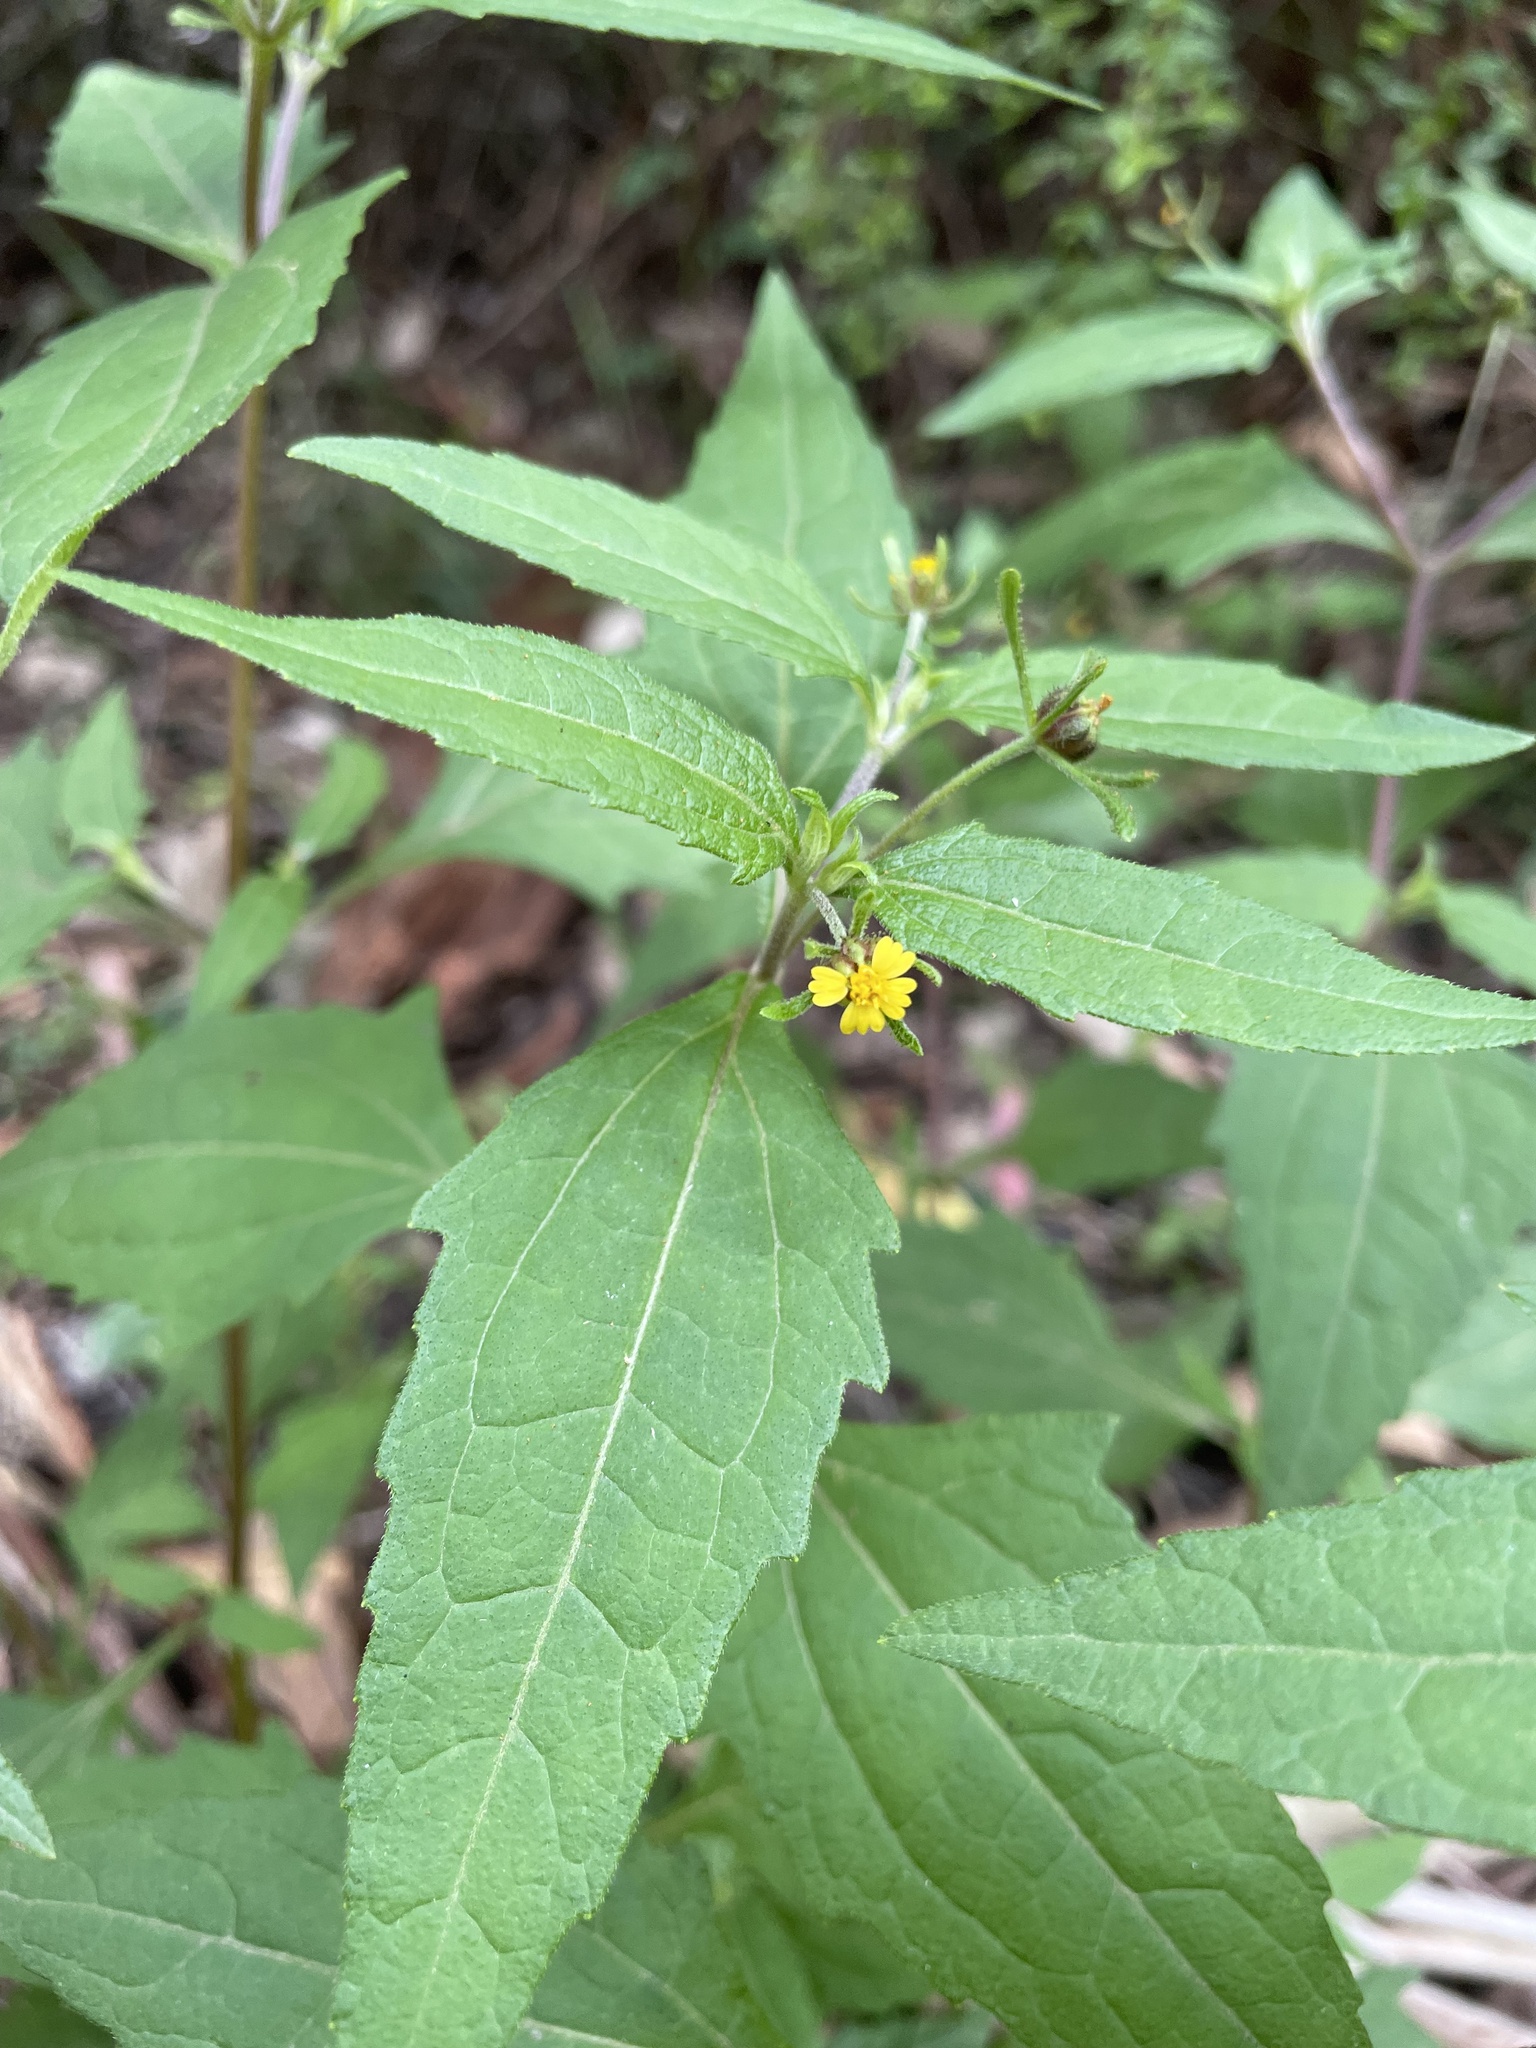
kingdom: Plantae
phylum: Tracheophyta
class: Magnoliopsida
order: Asterales
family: Asteraceae
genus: Sigesbeckia
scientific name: Sigesbeckia orientalis
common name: Eastern st paul's-wort
